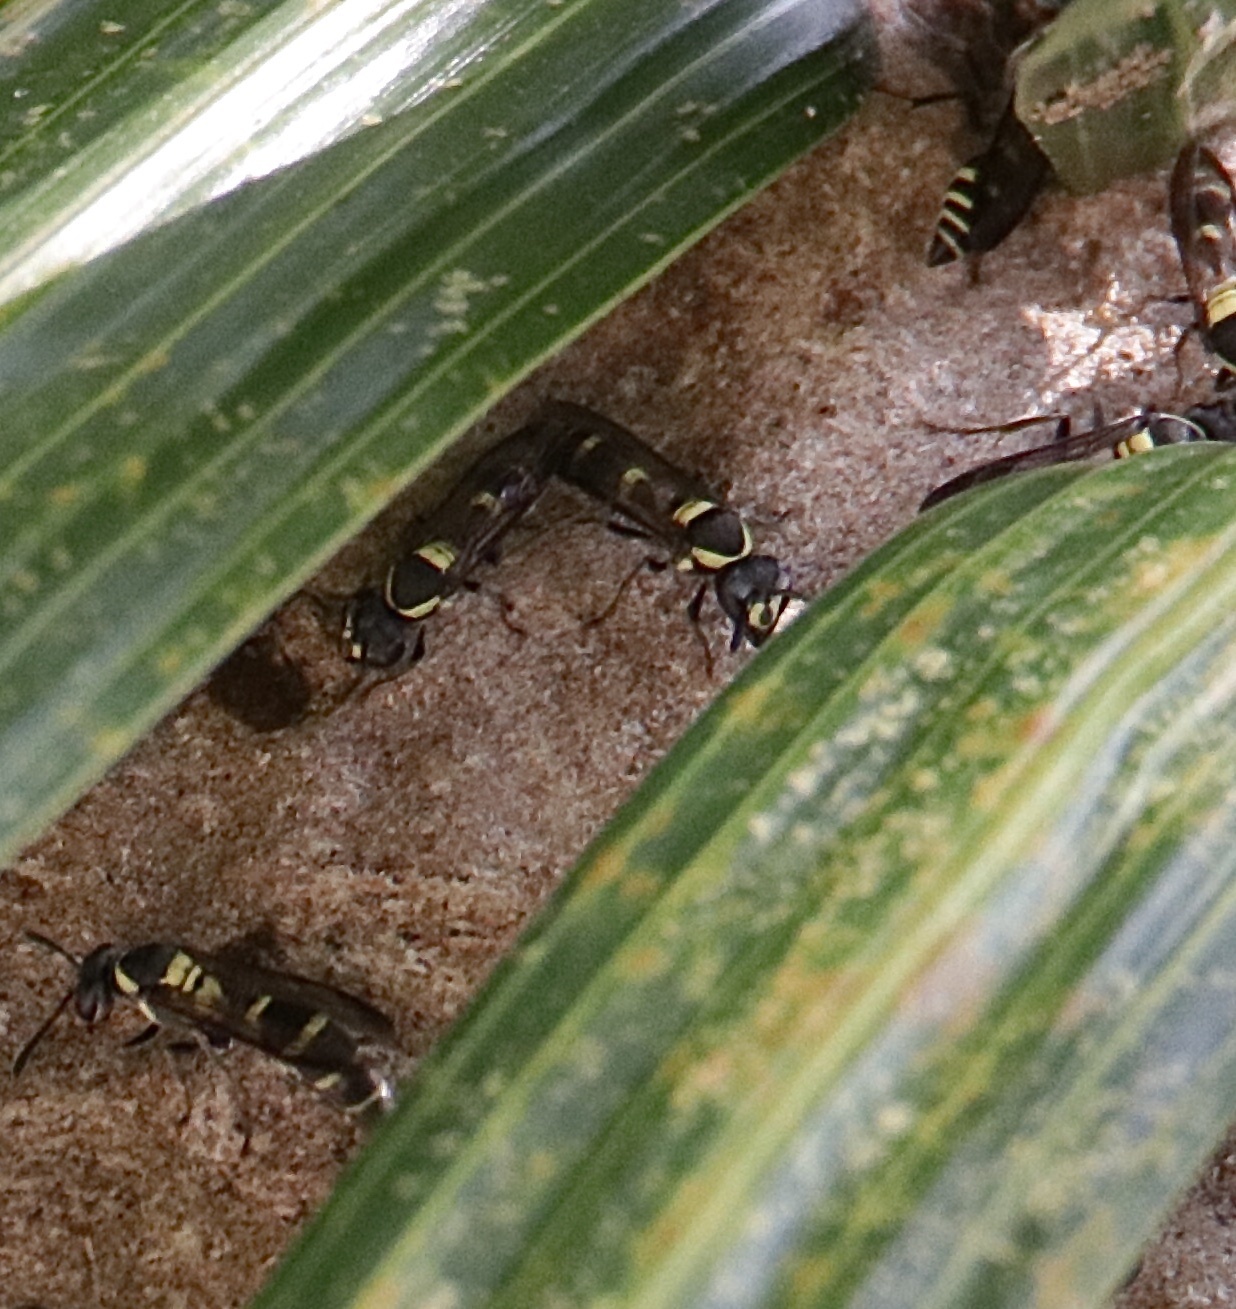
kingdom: Animalia
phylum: Arthropoda
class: Insecta
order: Hymenoptera
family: Eumenidae
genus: Polybia
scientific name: Polybia occidentalis
